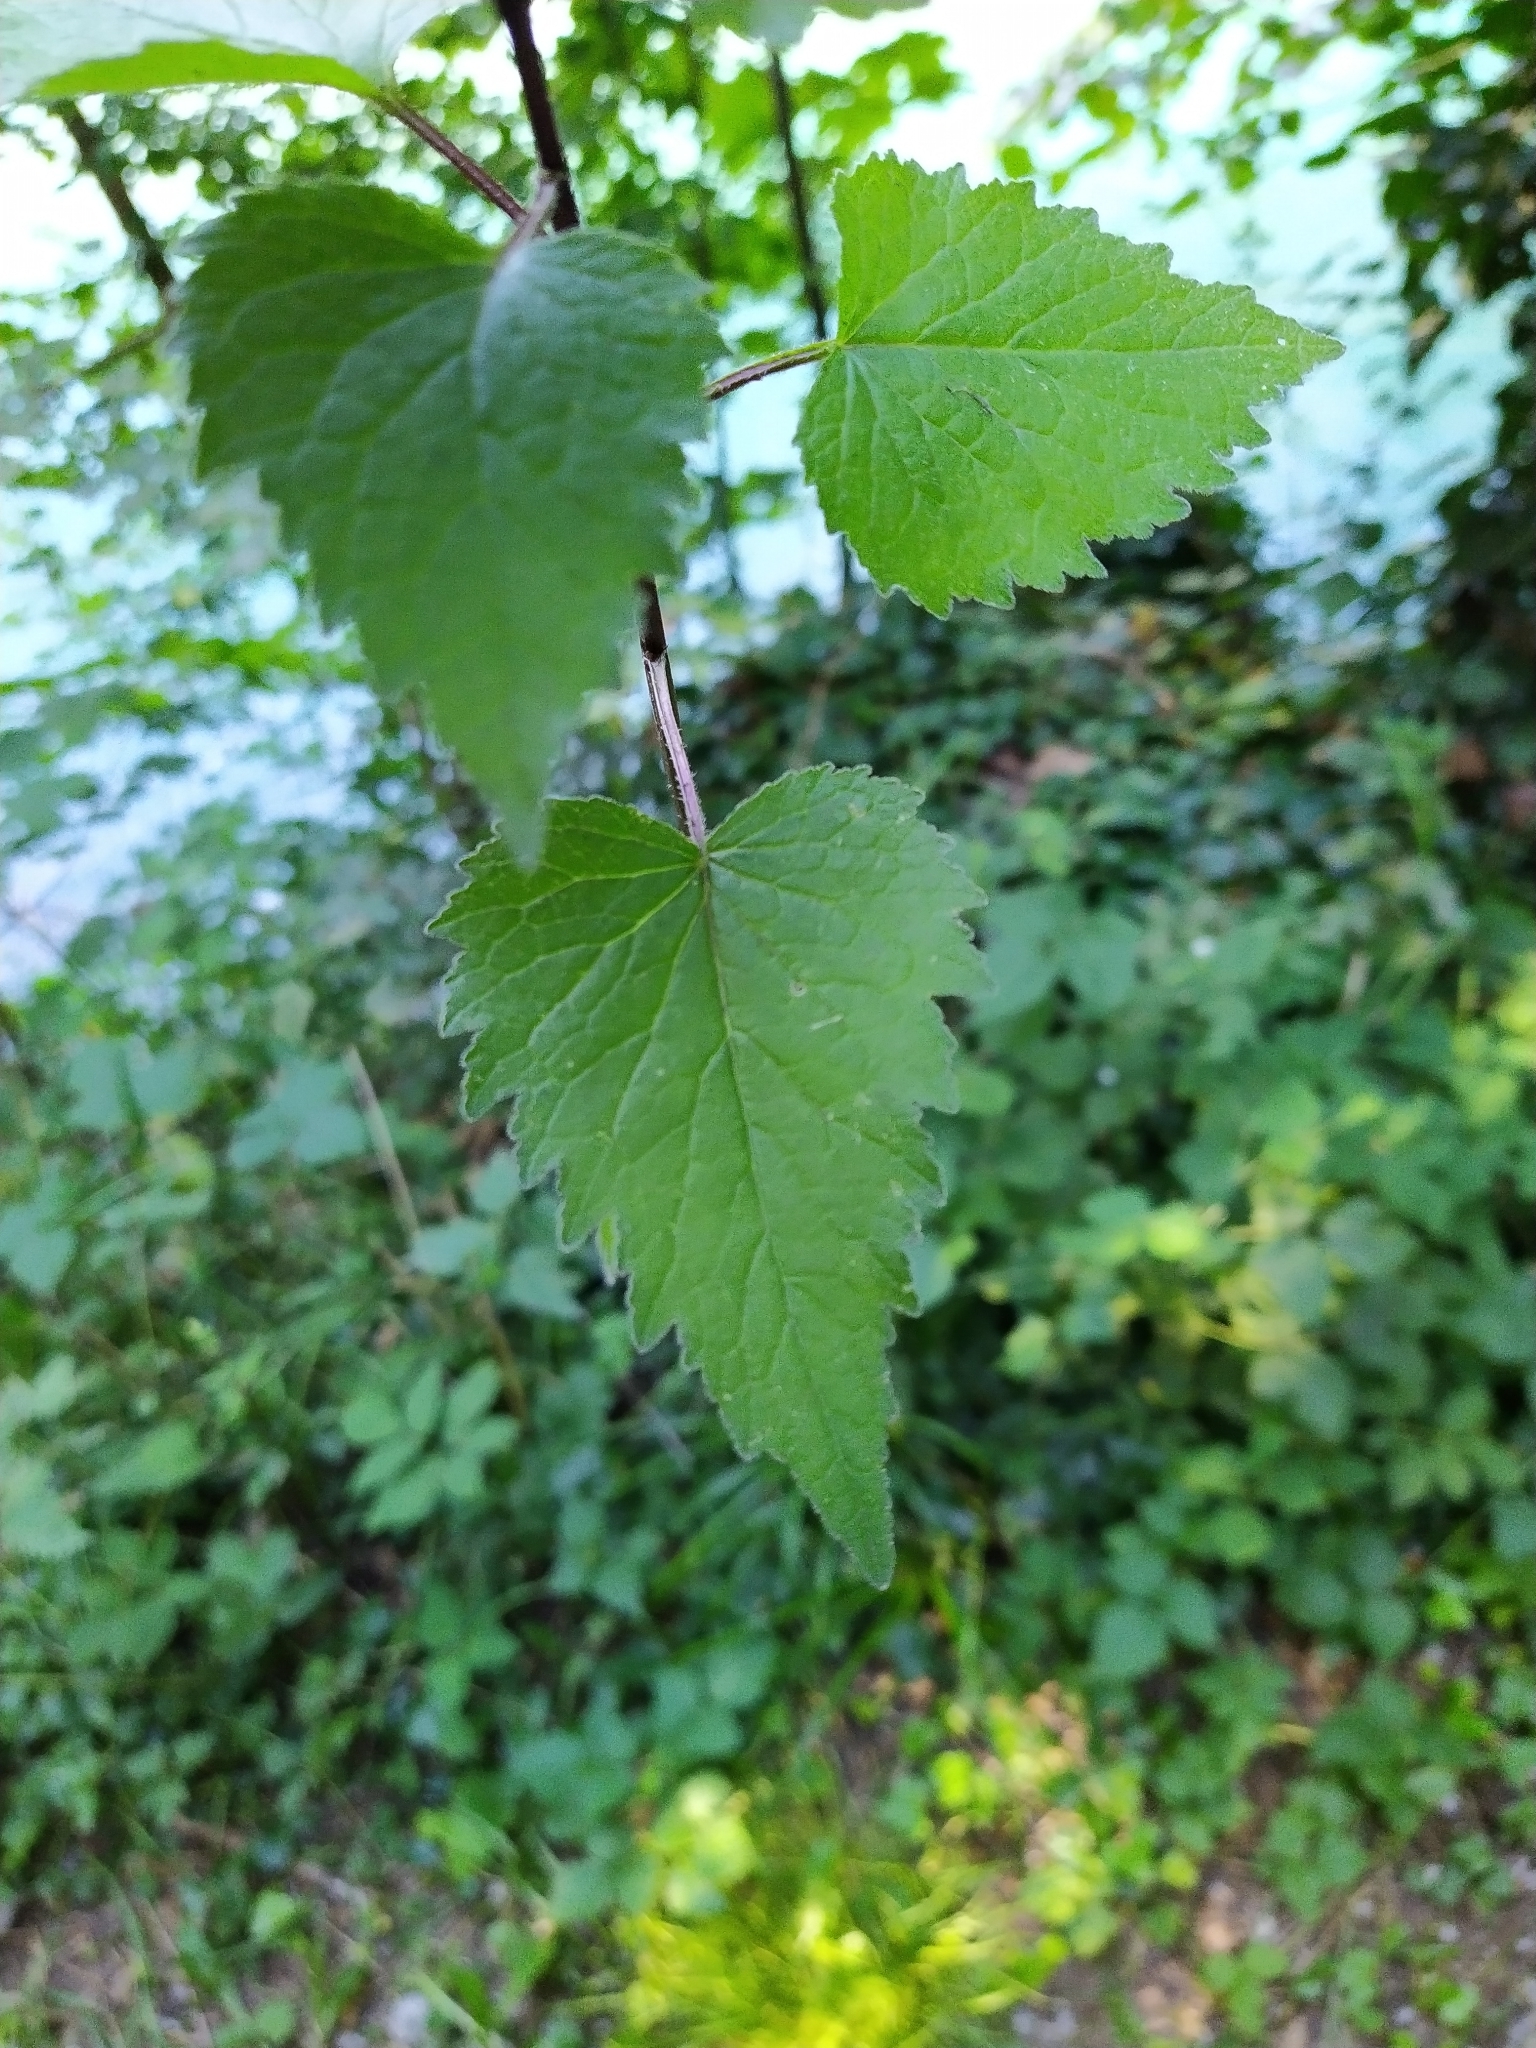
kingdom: Plantae
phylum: Tracheophyta
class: Magnoliopsida
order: Asterales
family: Campanulaceae
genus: Campanula
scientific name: Campanula trachelium
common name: Nettle-leaved bellflower
